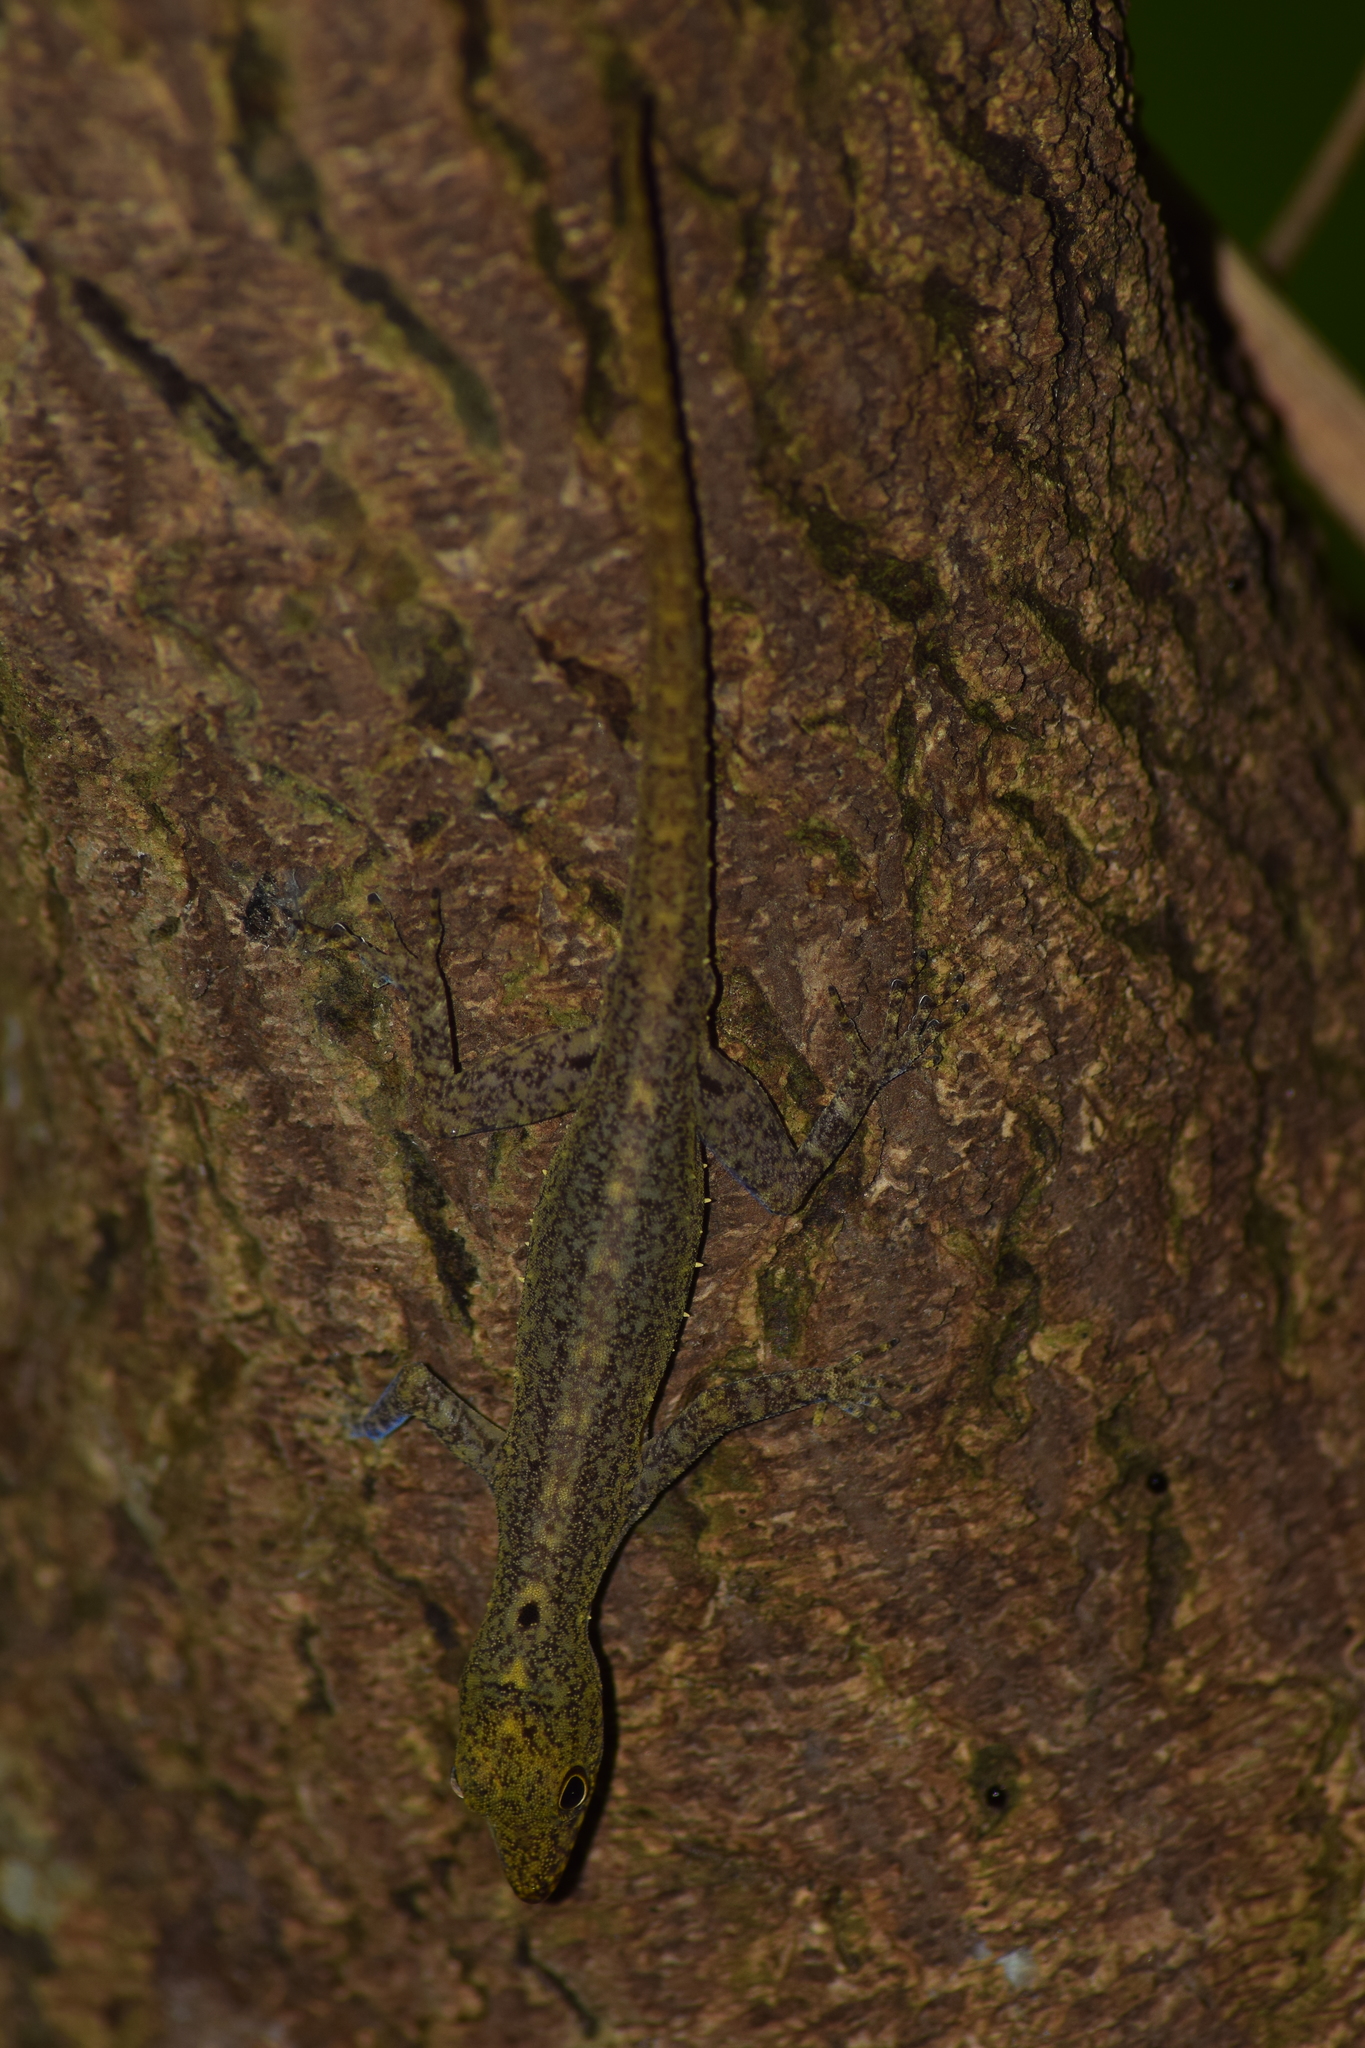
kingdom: Animalia
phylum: Chordata
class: Squamata
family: Gekkonidae
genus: Cnemaspis
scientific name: Cnemaspis littoralis
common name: Coastal day gecko
